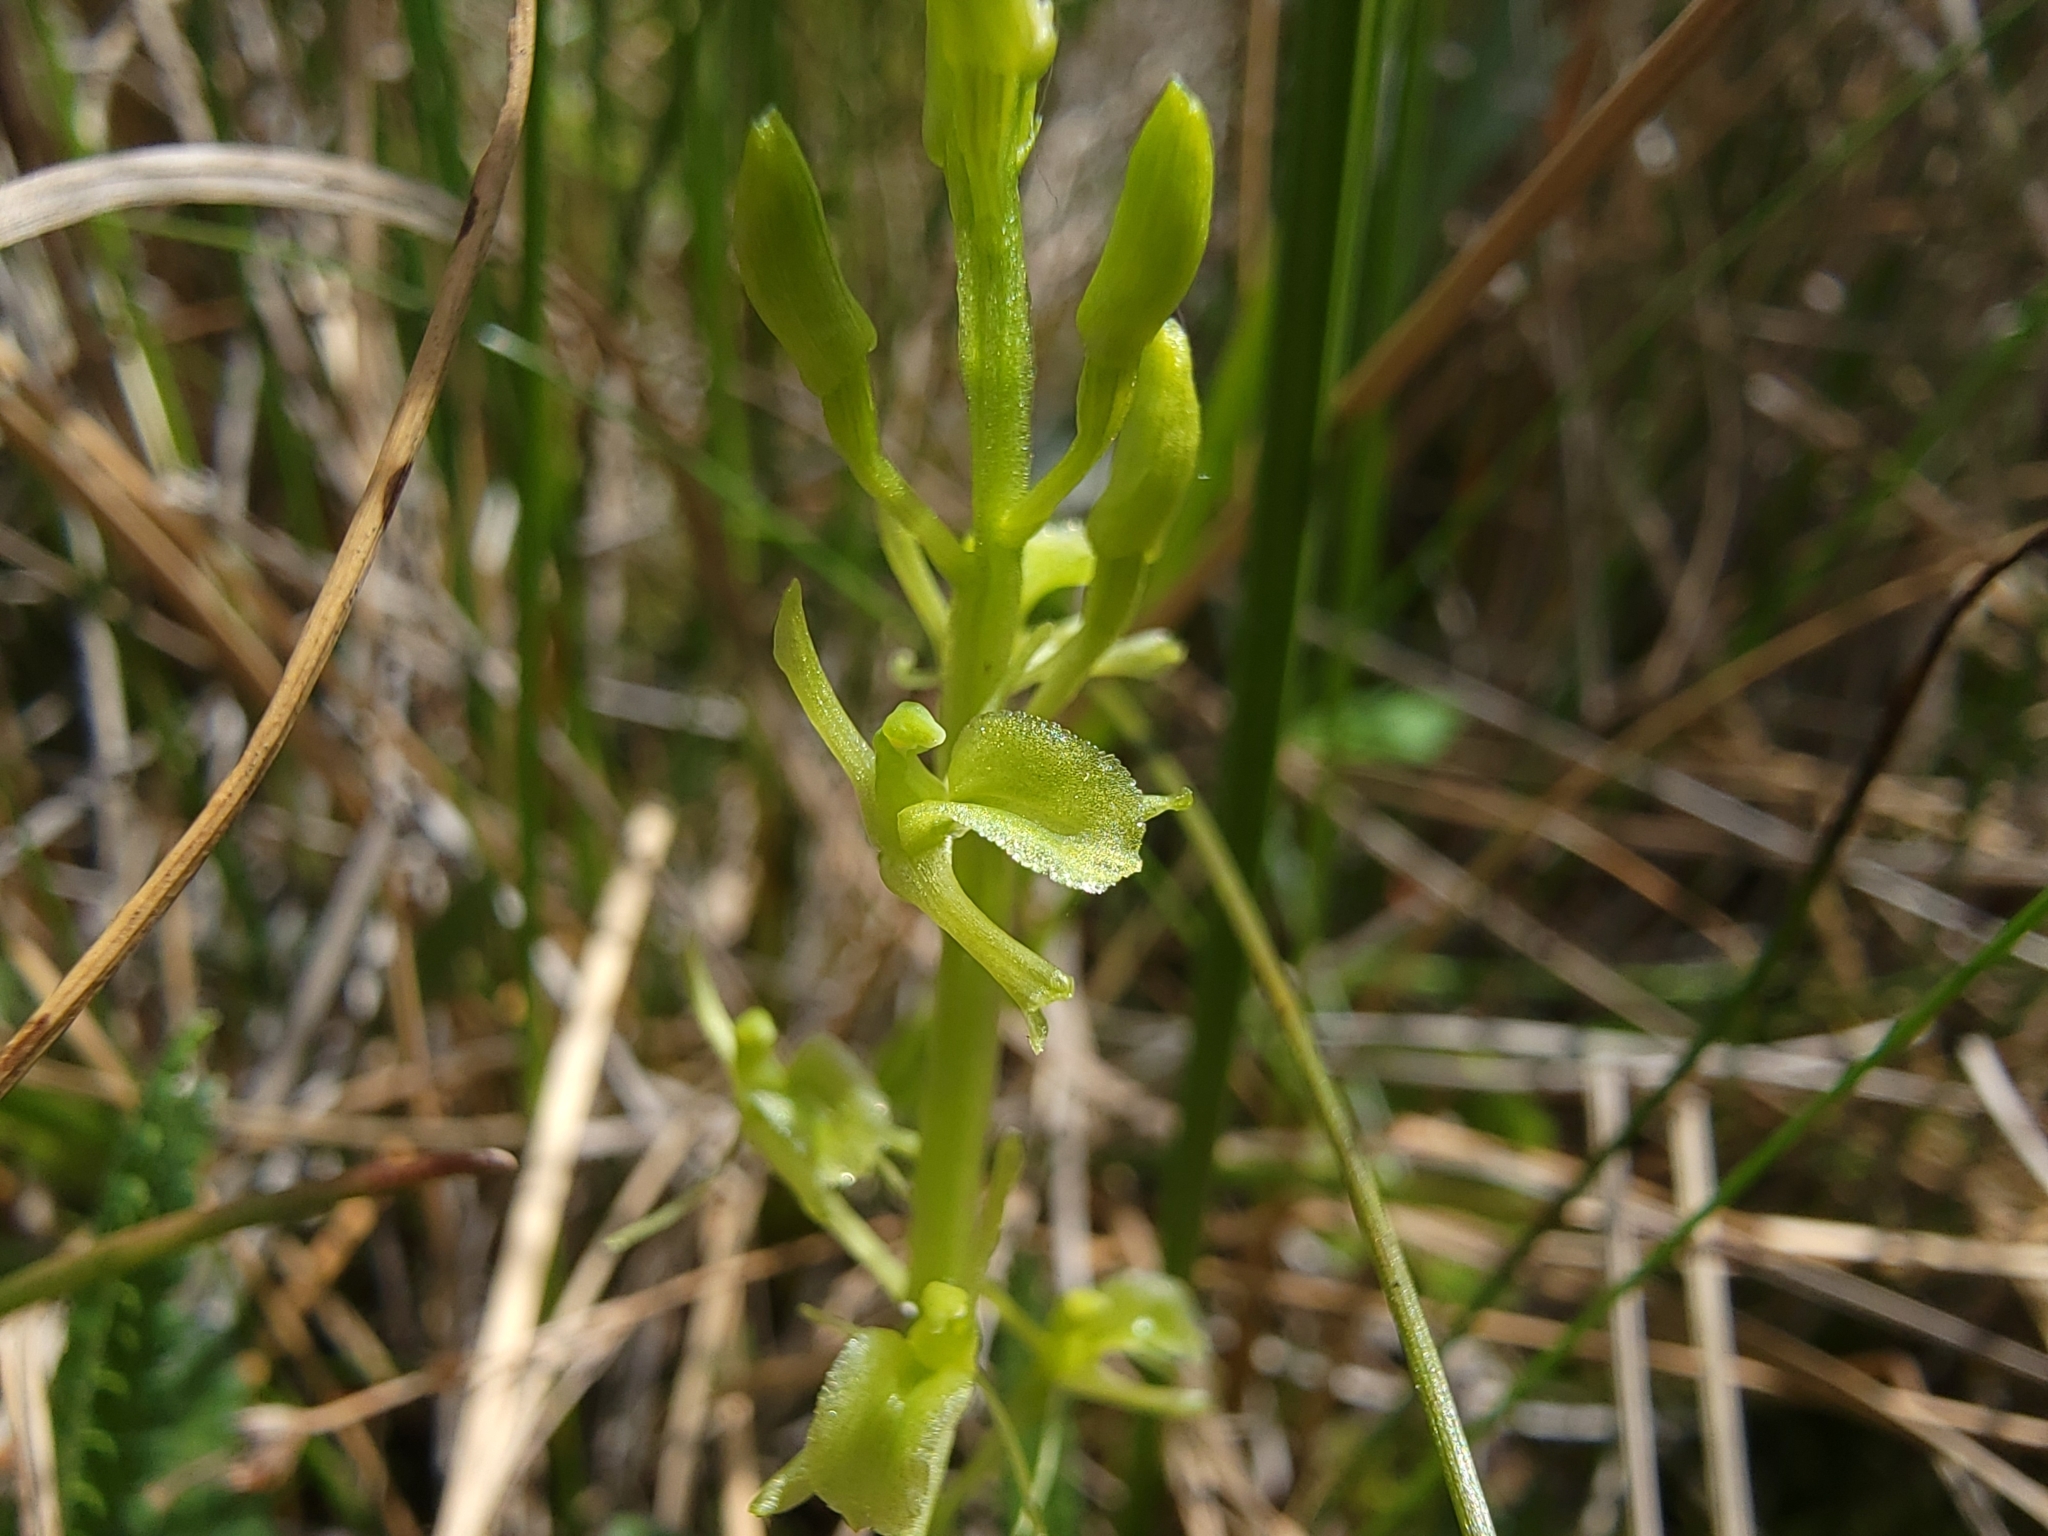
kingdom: Animalia
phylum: Arthropoda
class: Insecta
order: Coleoptera
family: Curculionidae
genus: Liparis
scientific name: Liparis loeselii
